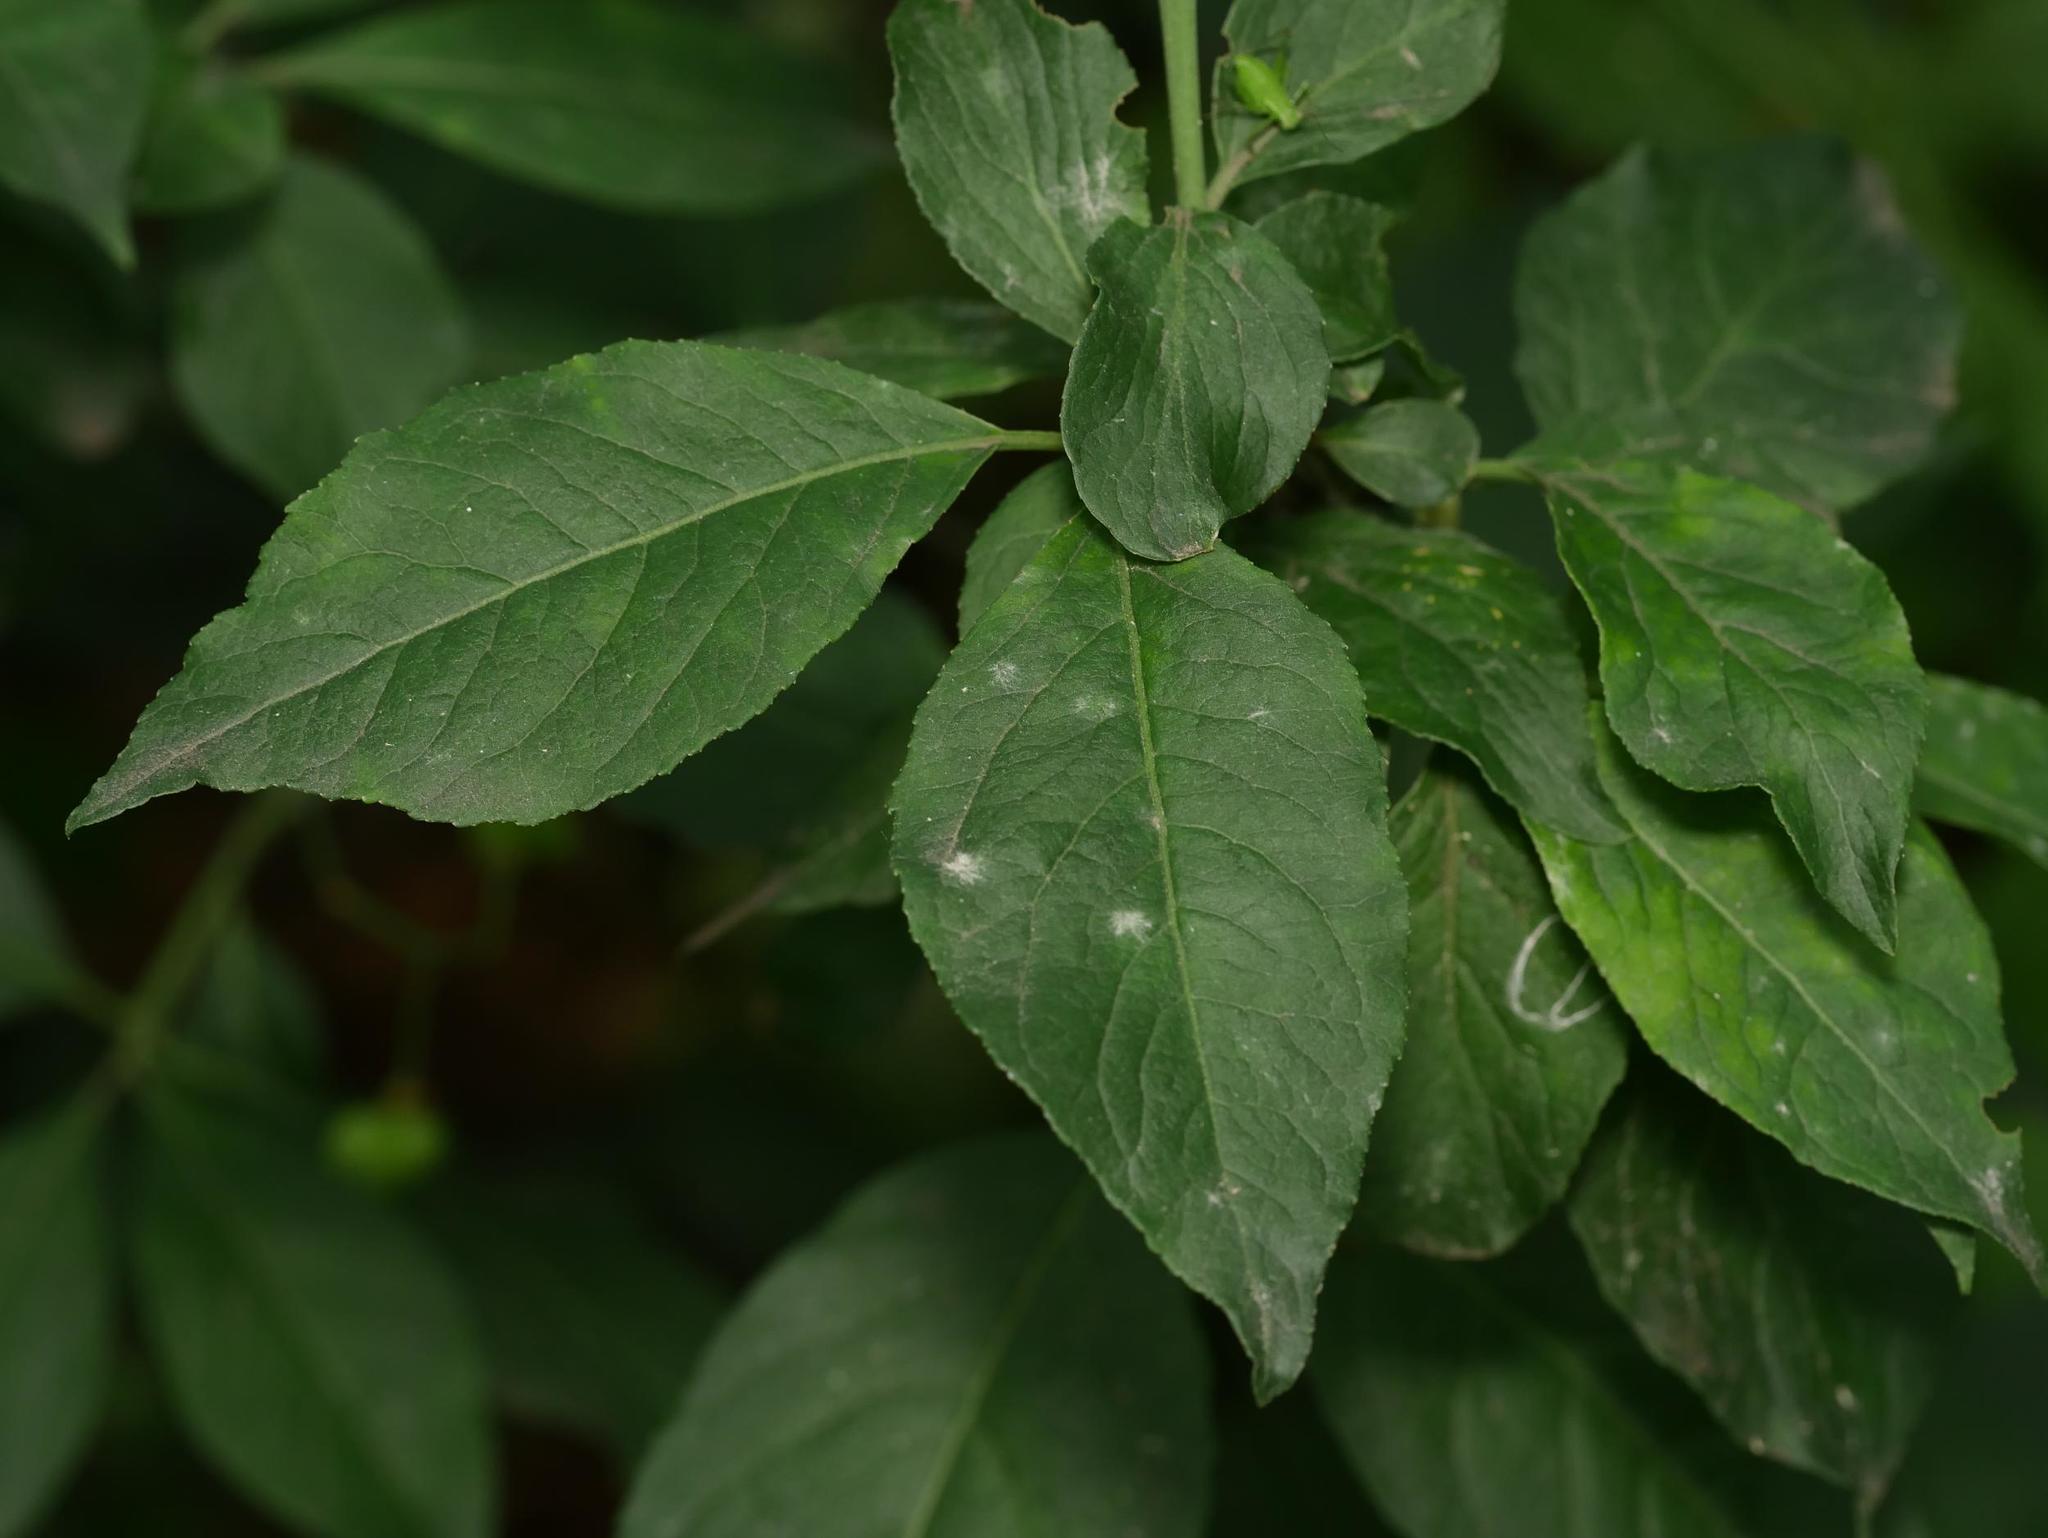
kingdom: Plantae
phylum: Tracheophyta
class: Magnoliopsida
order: Celastrales
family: Celastraceae
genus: Euonymus
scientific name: Euonymus europaeus
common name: Spindle
